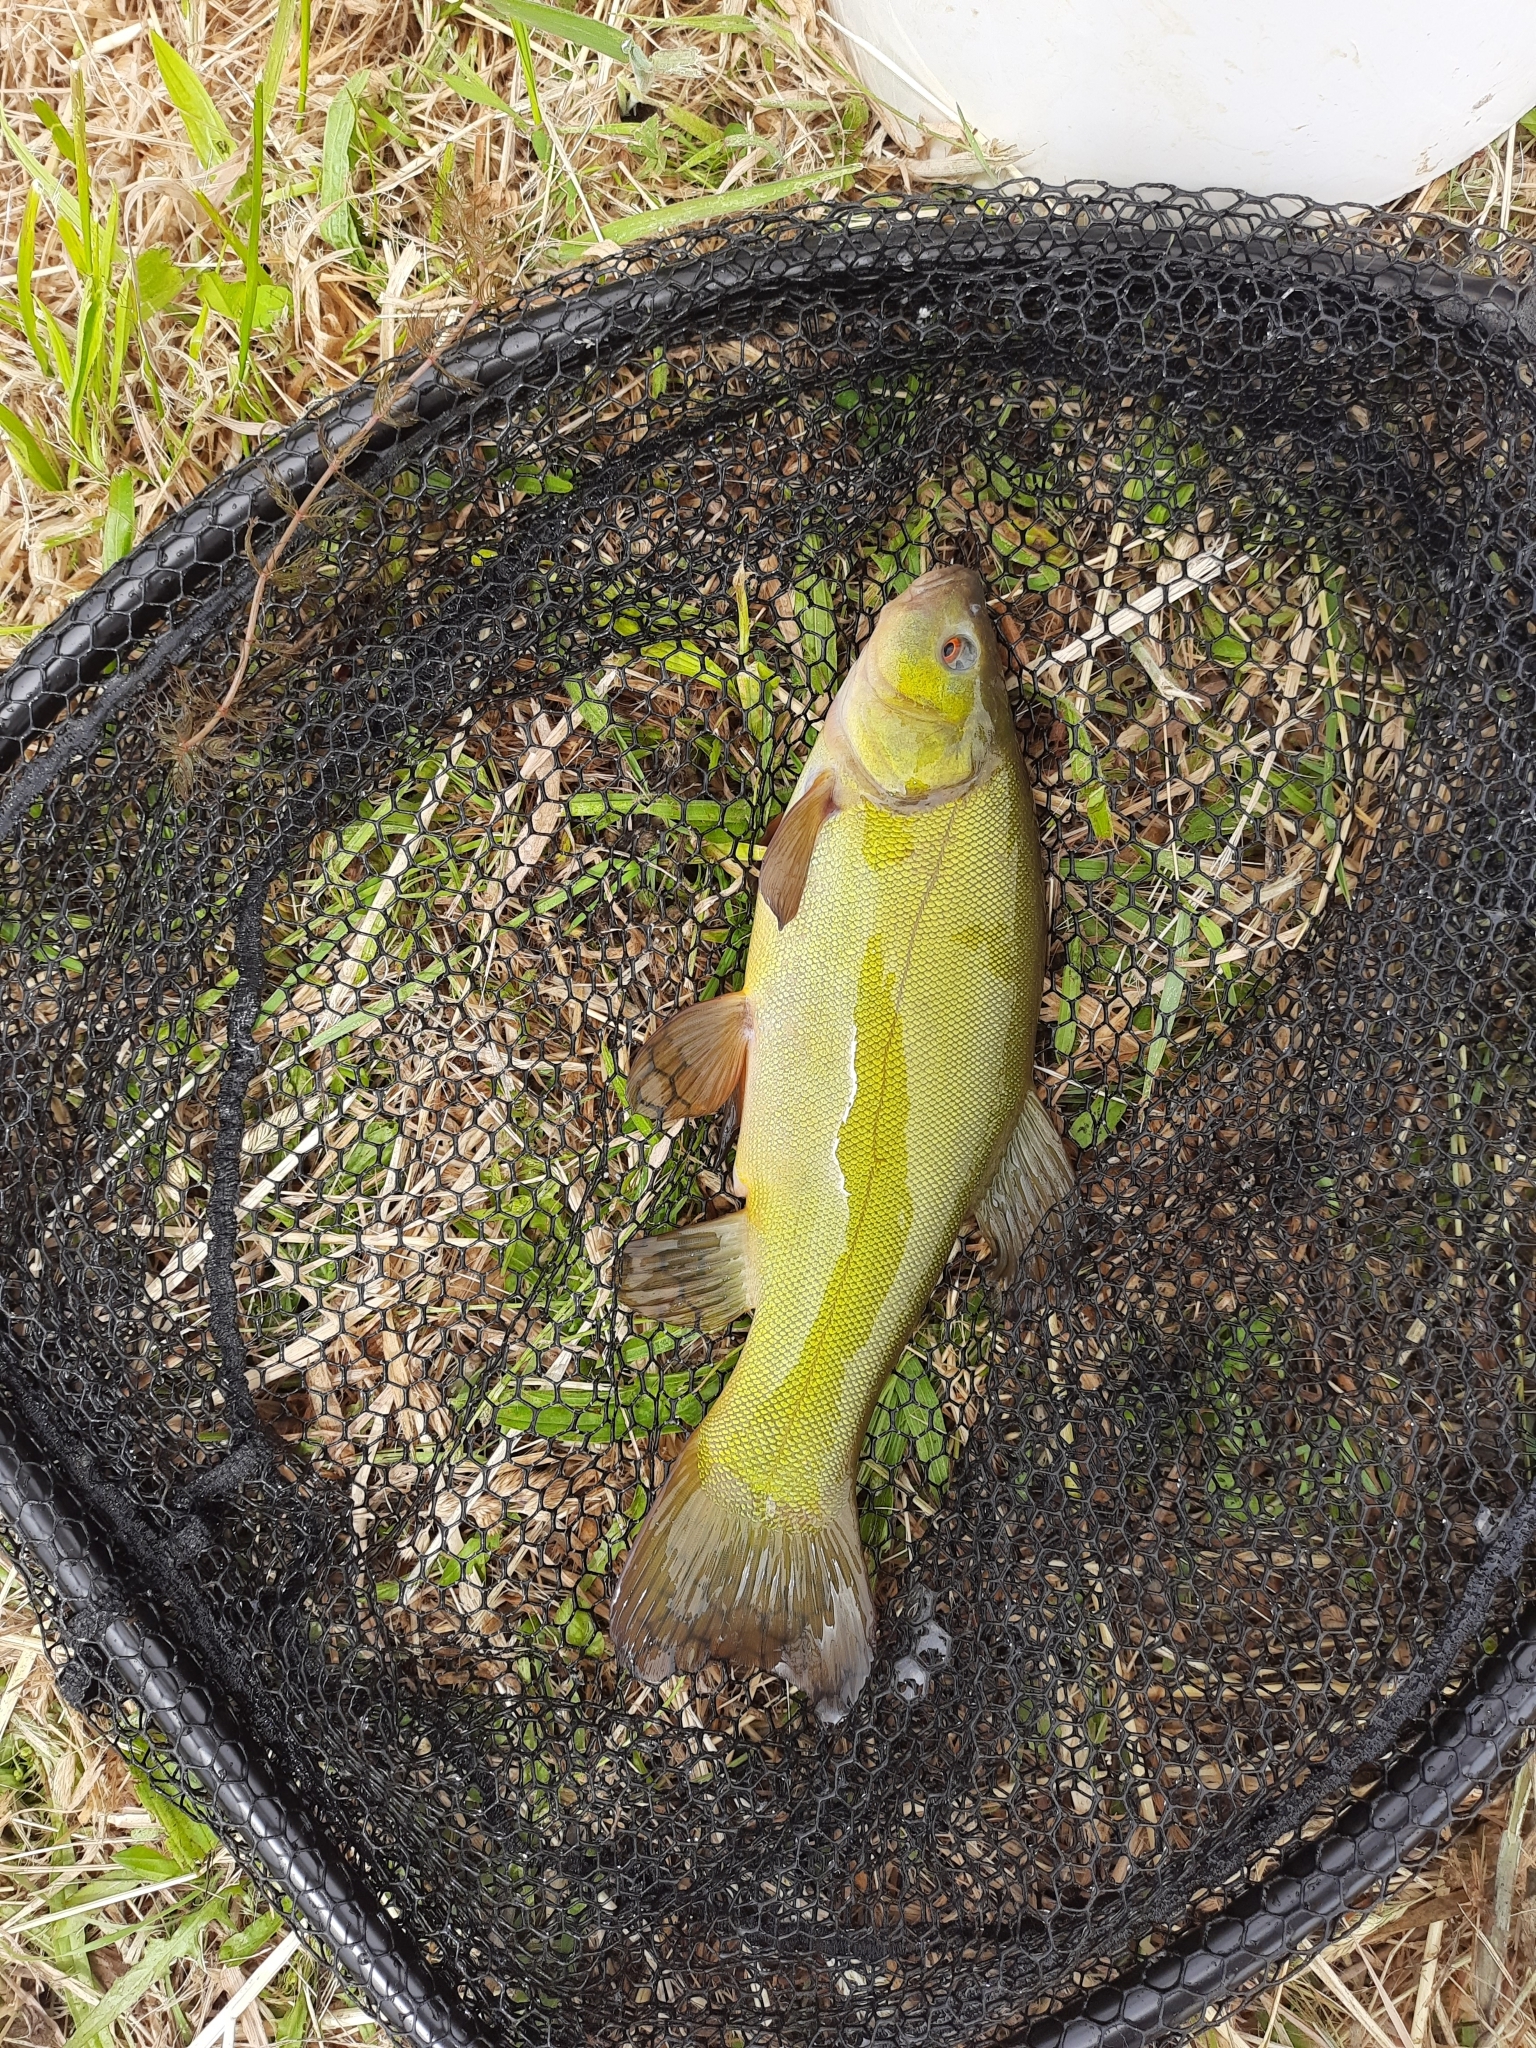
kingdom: Animalia
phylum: Chordata
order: Cypriniformes
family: Cyprinidae
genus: Tinca
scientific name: Tinca tinca
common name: Tench
